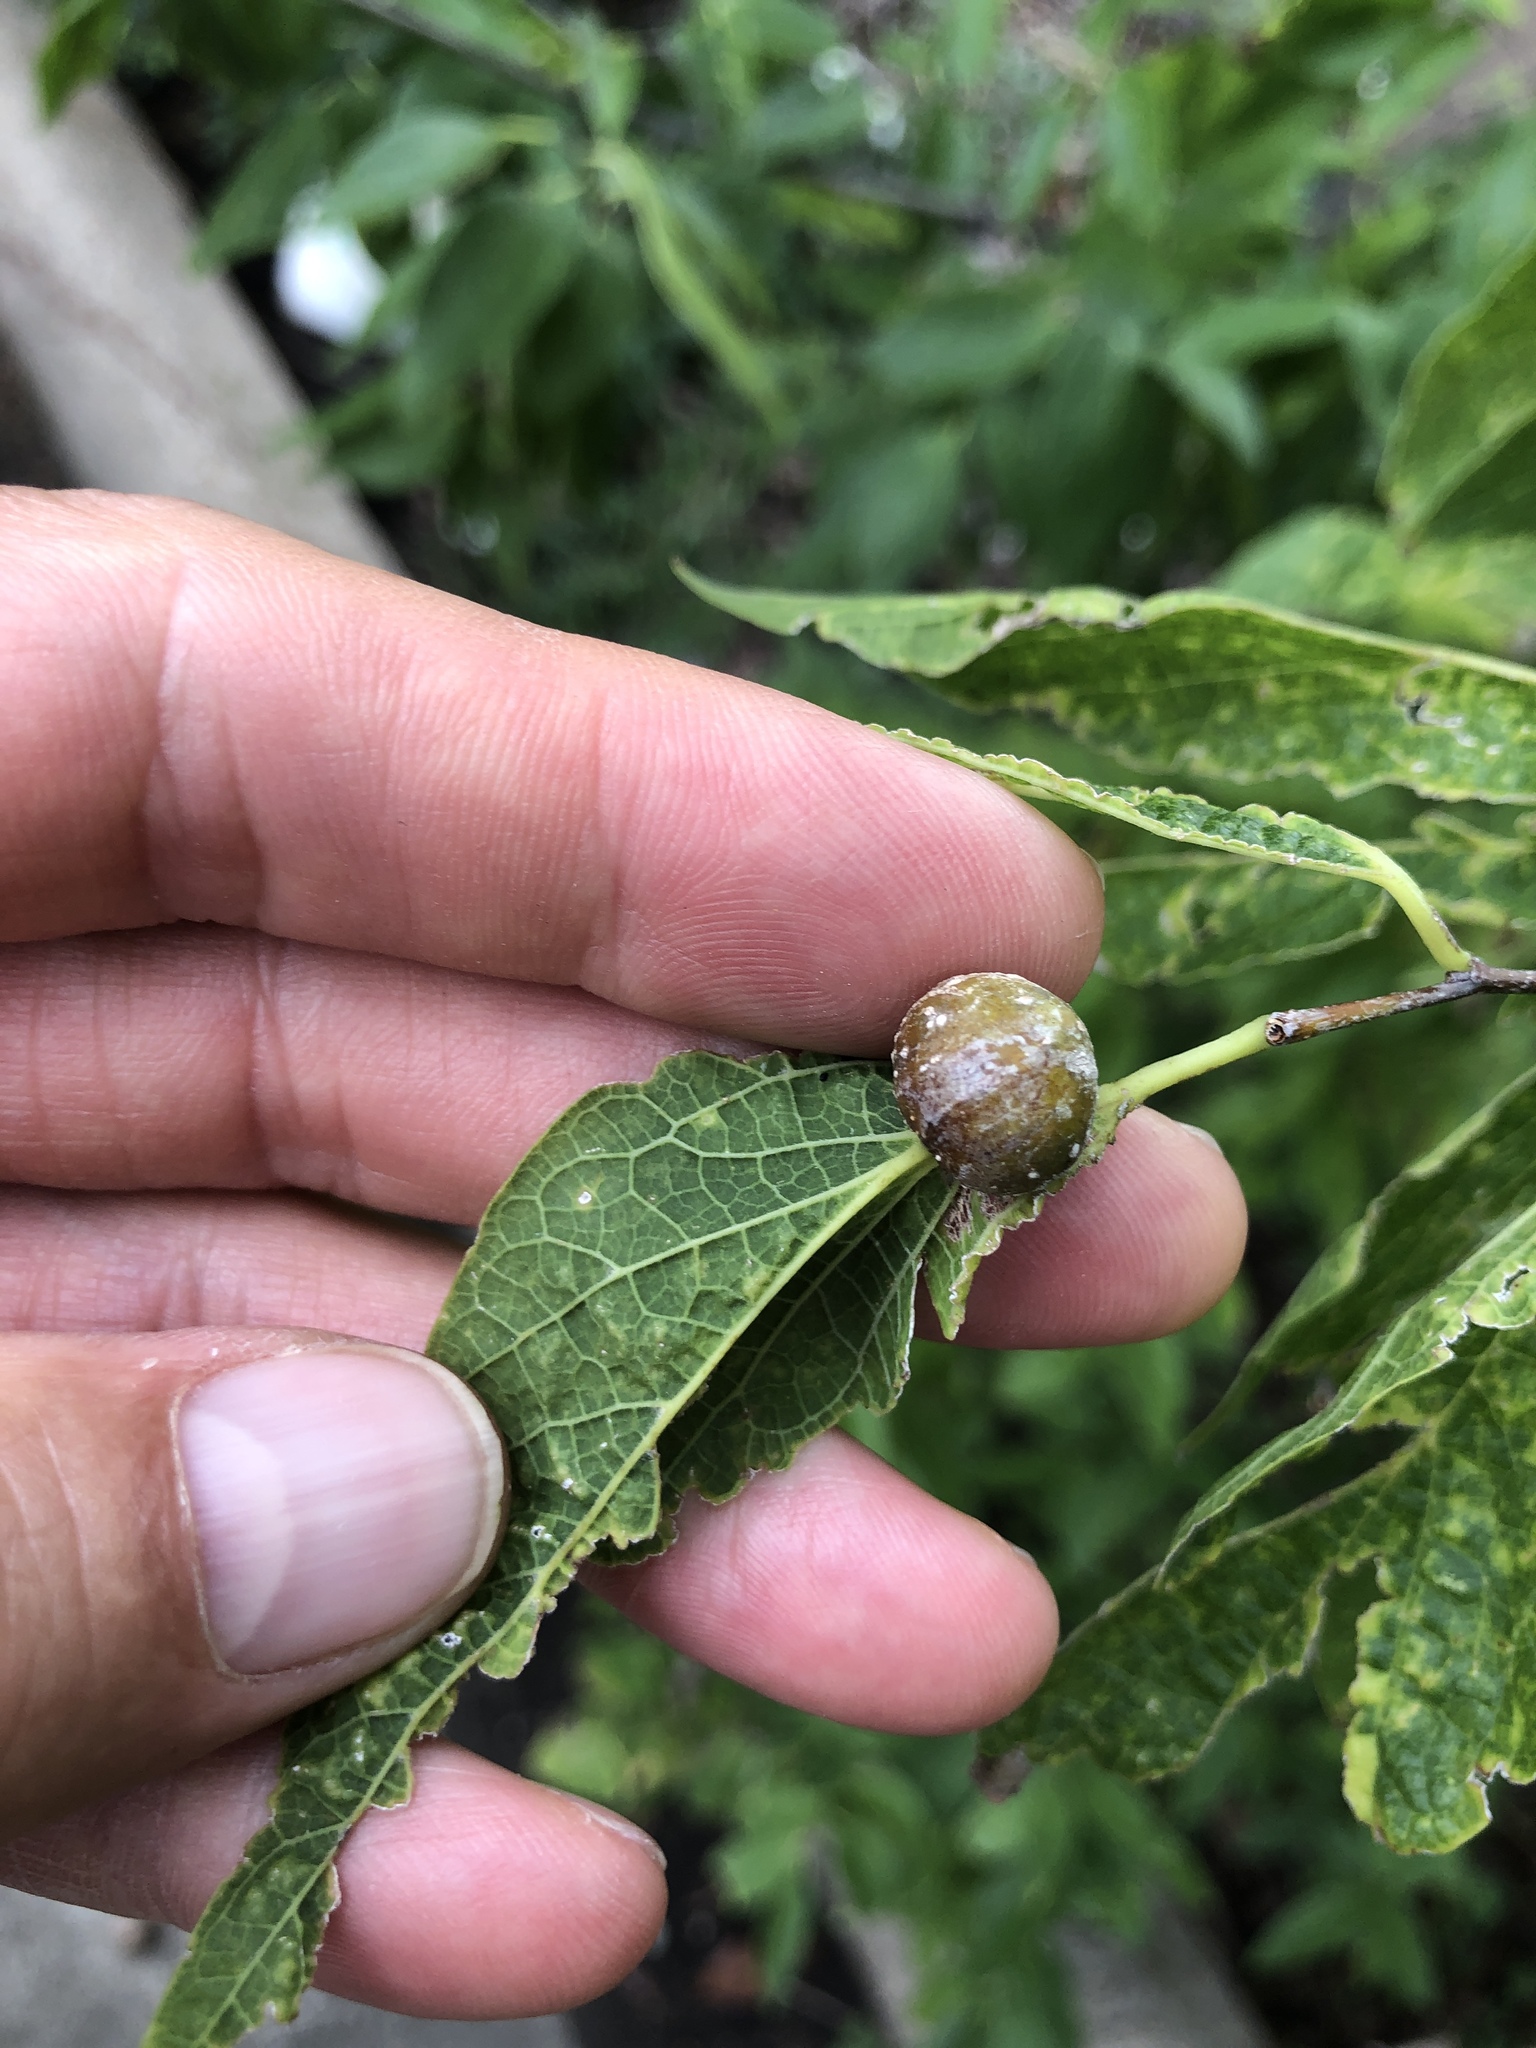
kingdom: Animalia
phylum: Arthropoda
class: Insecta
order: Hemiptera
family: Aphalaridae
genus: Pachypsylla
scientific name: Pachypsylla venusta
